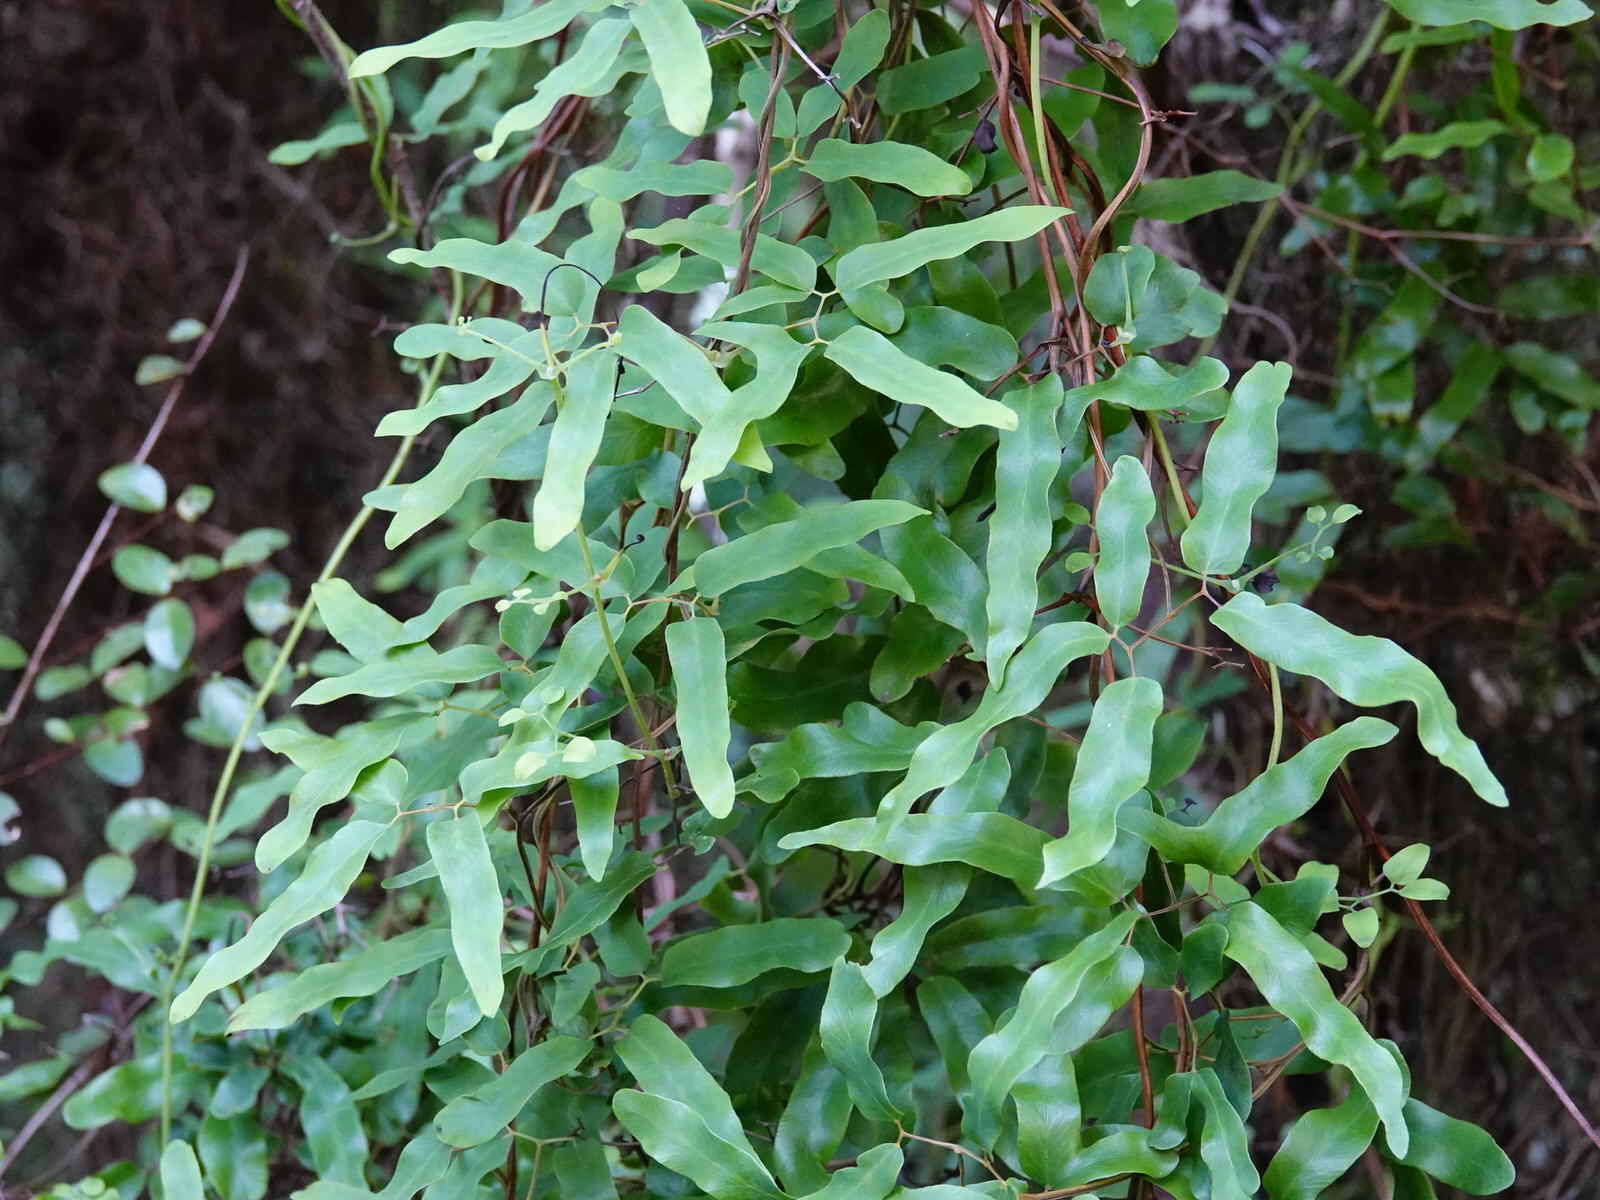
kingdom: Plantae
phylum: Tracheophyta
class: Polypodiopsida
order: Schizaeales
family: Lygodiaceae
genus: Lygodium
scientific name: Lygodium articulatum
